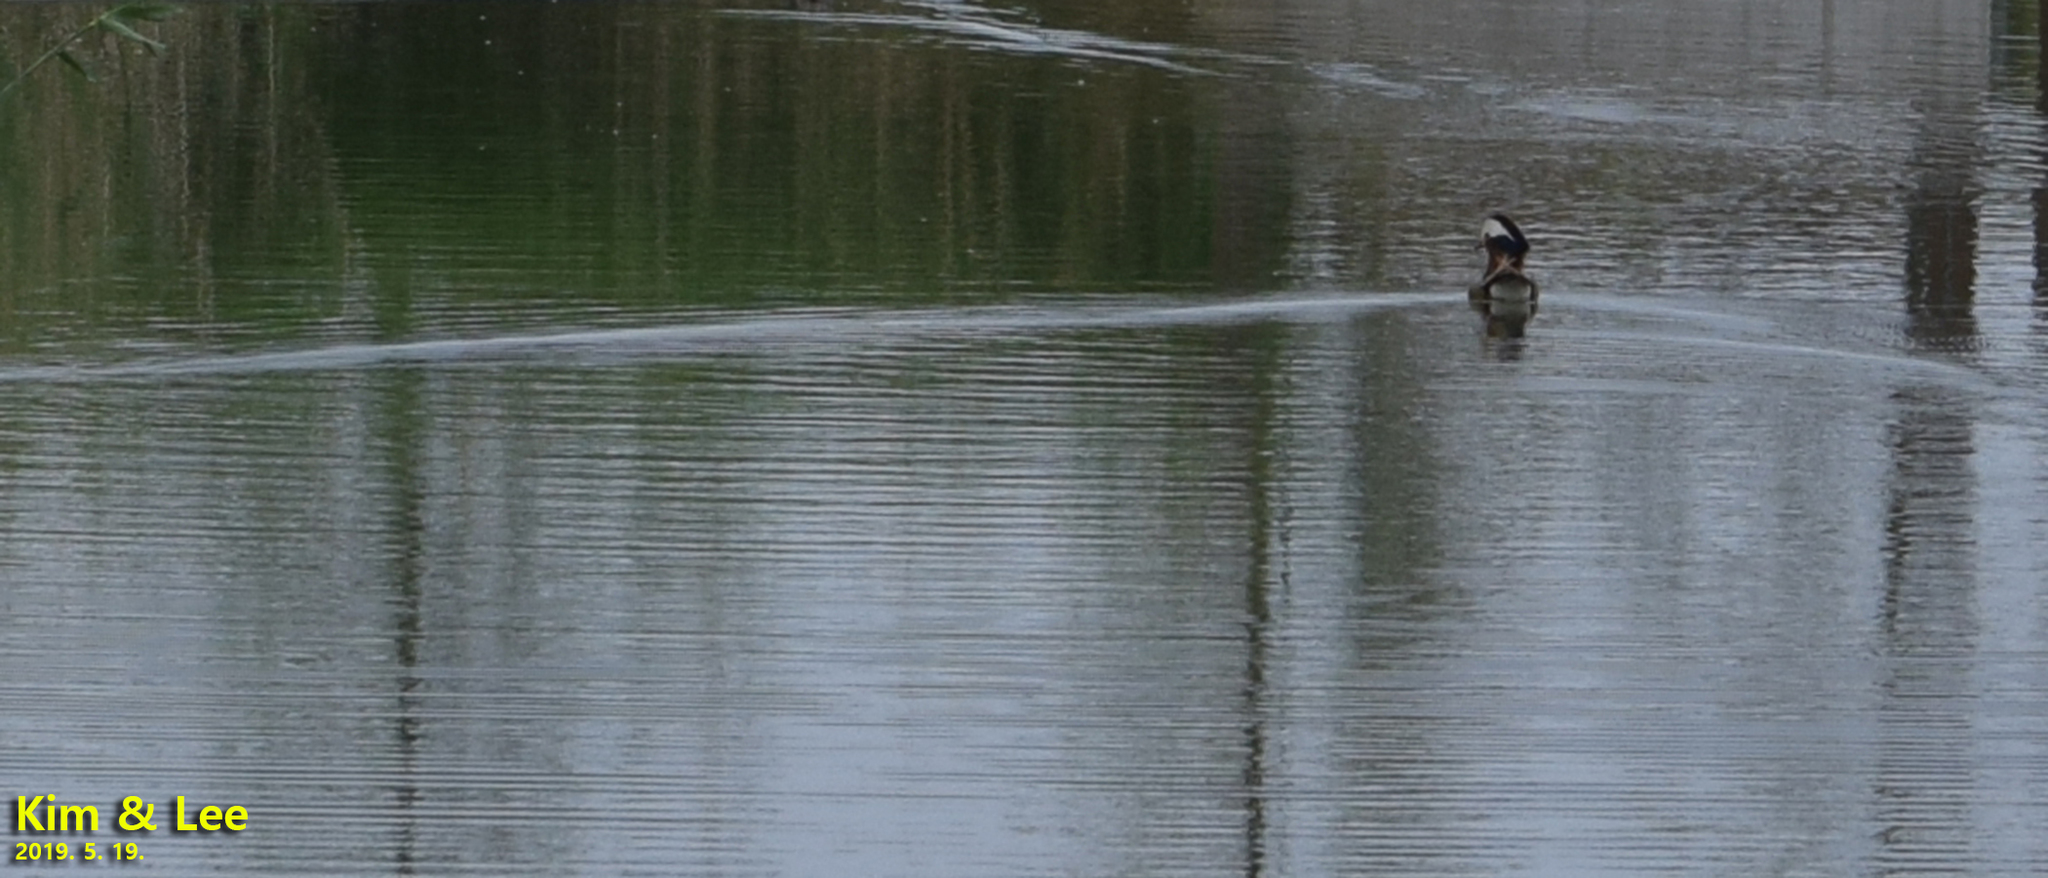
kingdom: Animalia
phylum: Chordata
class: Aves
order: Anseriformes
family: Anatidae
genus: Aix
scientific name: Aix galericulata
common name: Mandarin duck
